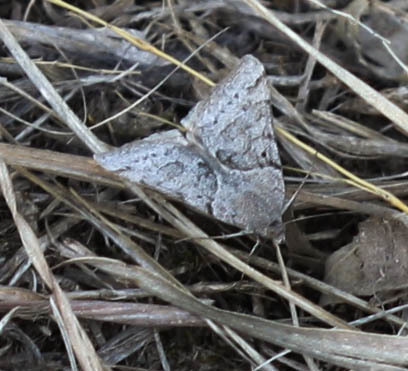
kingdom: Animalia
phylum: Arthropoda
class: Insecta
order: Lepidoptera
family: Erebidae
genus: Caenurgina
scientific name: Caenurgina erechtea
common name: Forage looper moth
